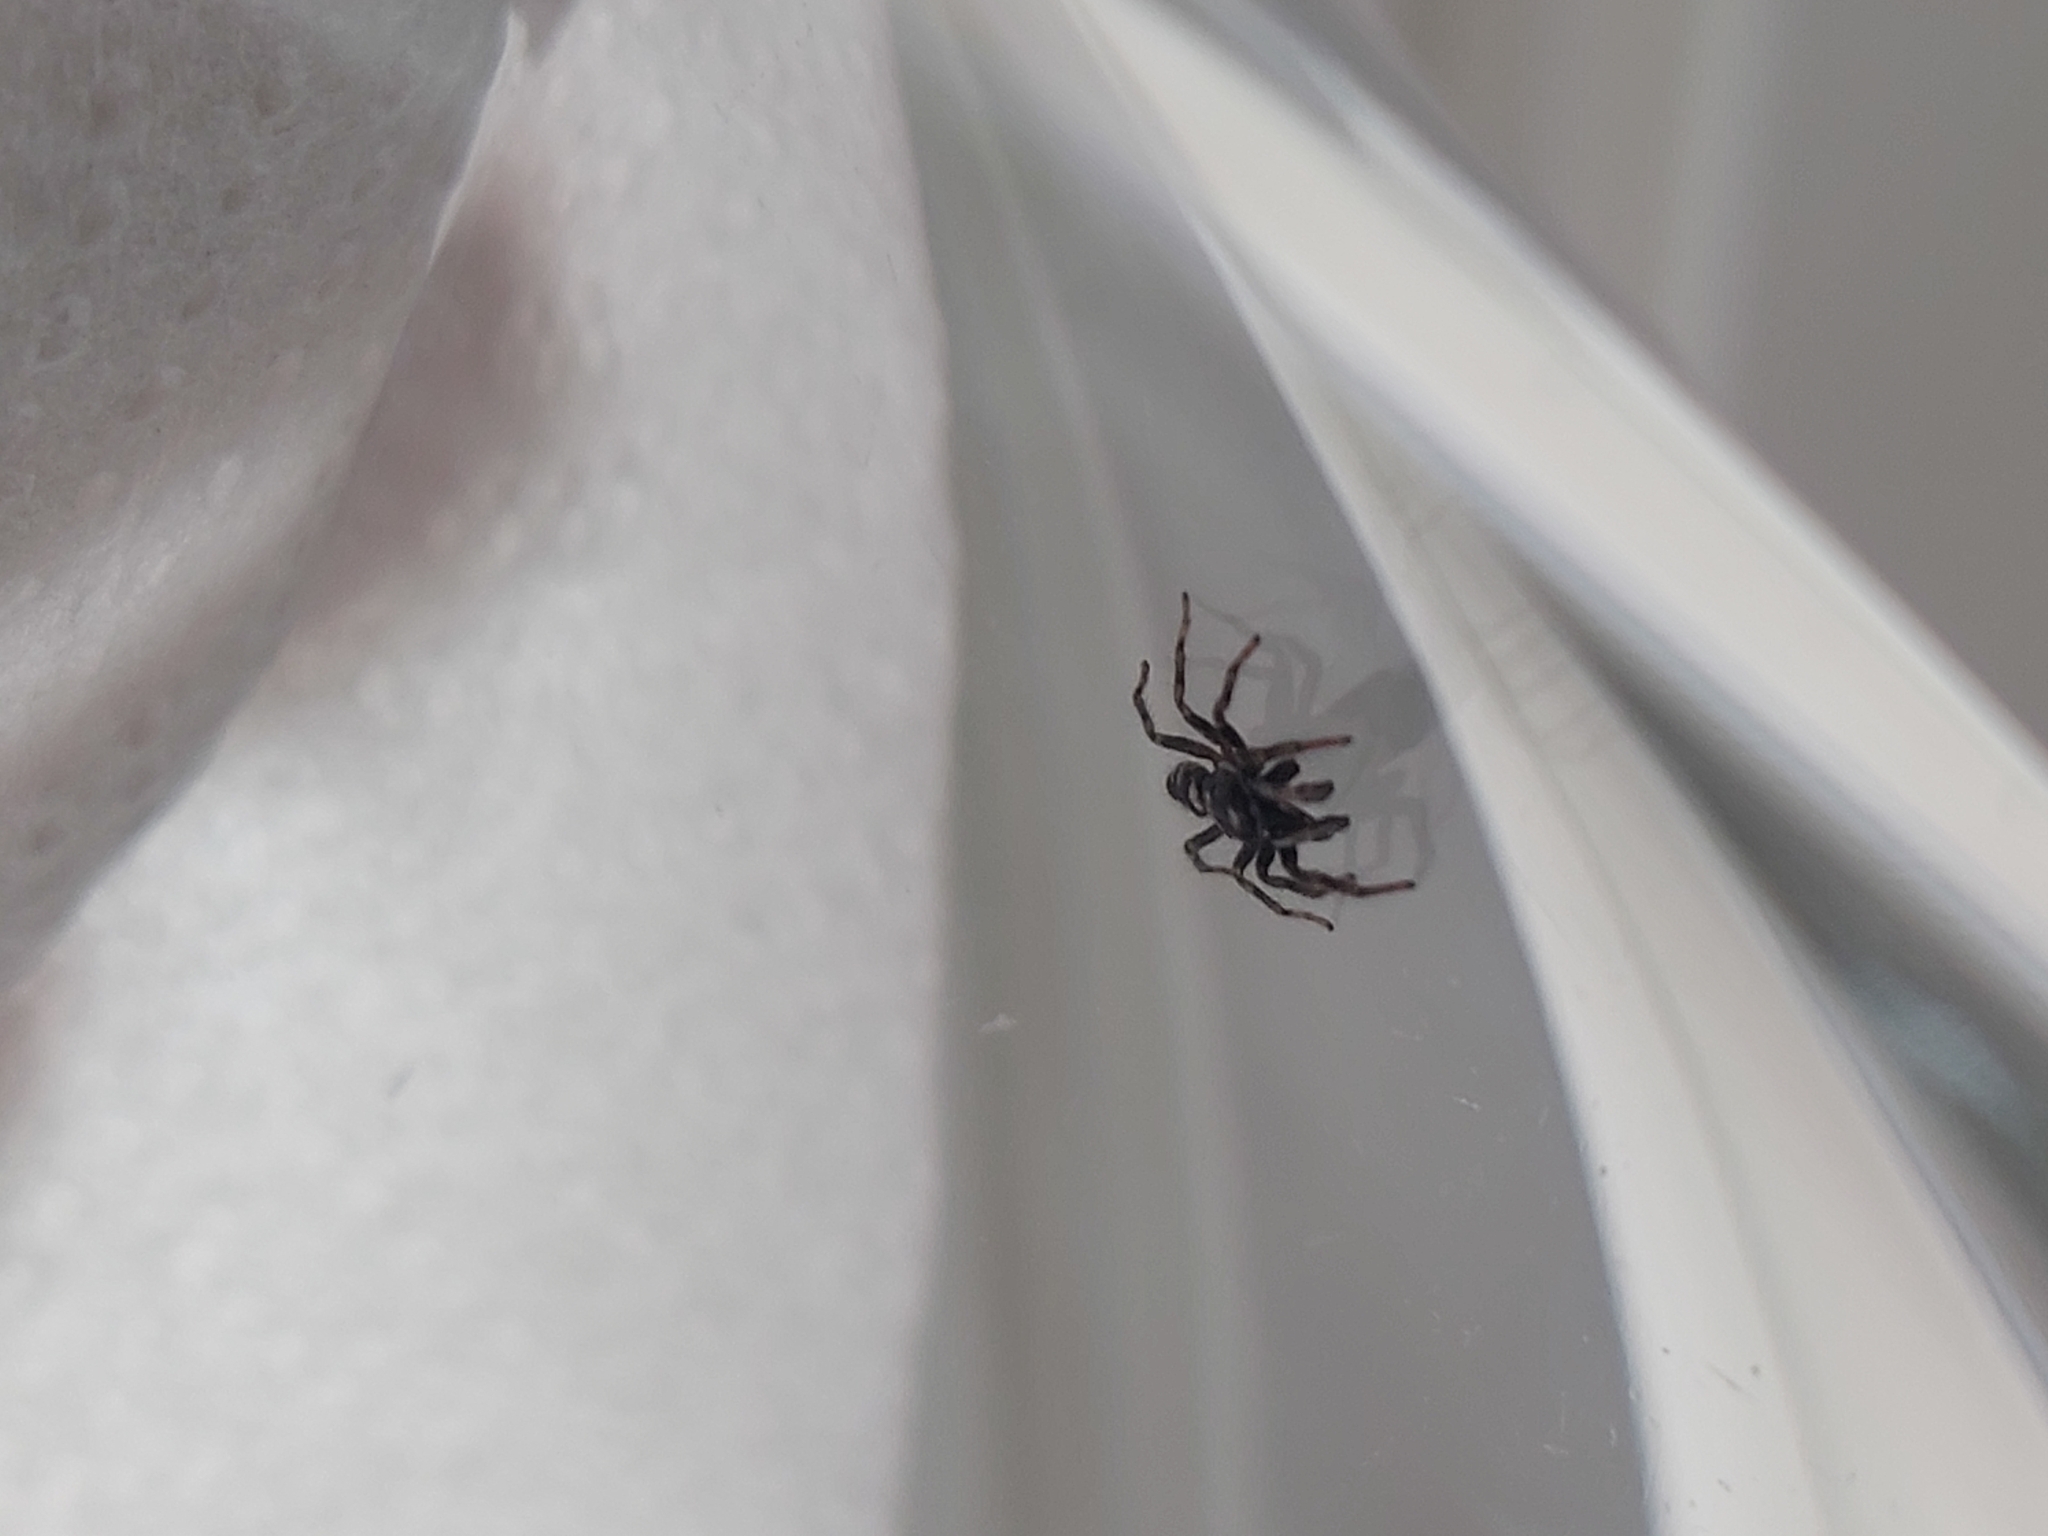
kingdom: Animalia
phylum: Arthropoda
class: Arachnida
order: Araneae
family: Salticidae
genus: Salticus
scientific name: Salticus scenicus
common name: Zebra jumper
